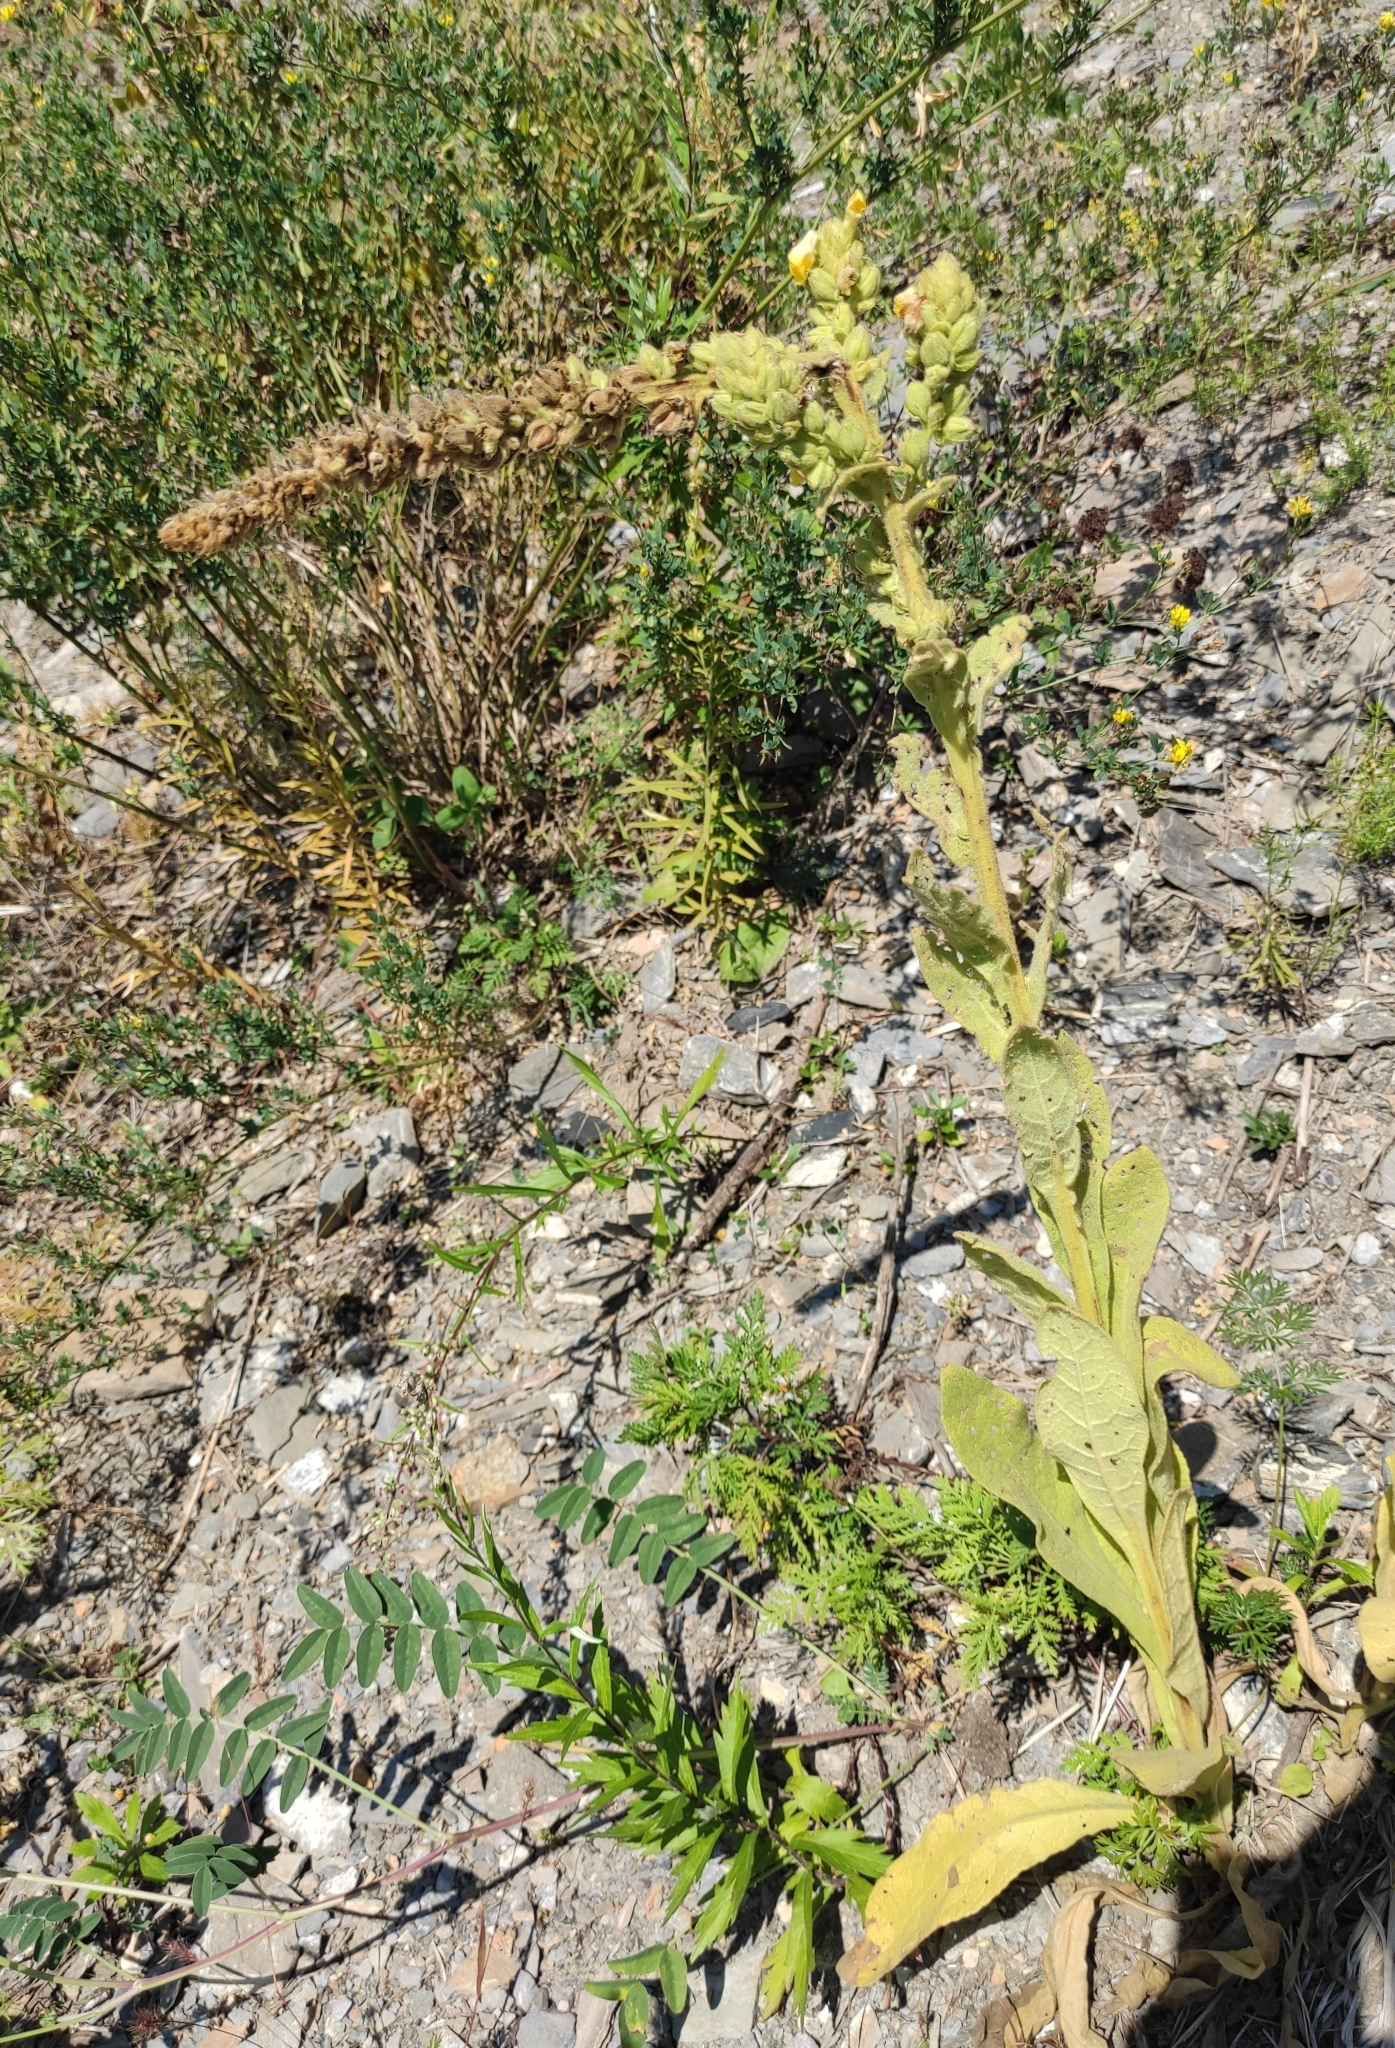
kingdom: Plantae
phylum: Tracheophyta
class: Magnoliopsida
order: Lamiales
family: Scrophulariaceae
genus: Verbascum
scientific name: Verbascum thapsus
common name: Common mullein
